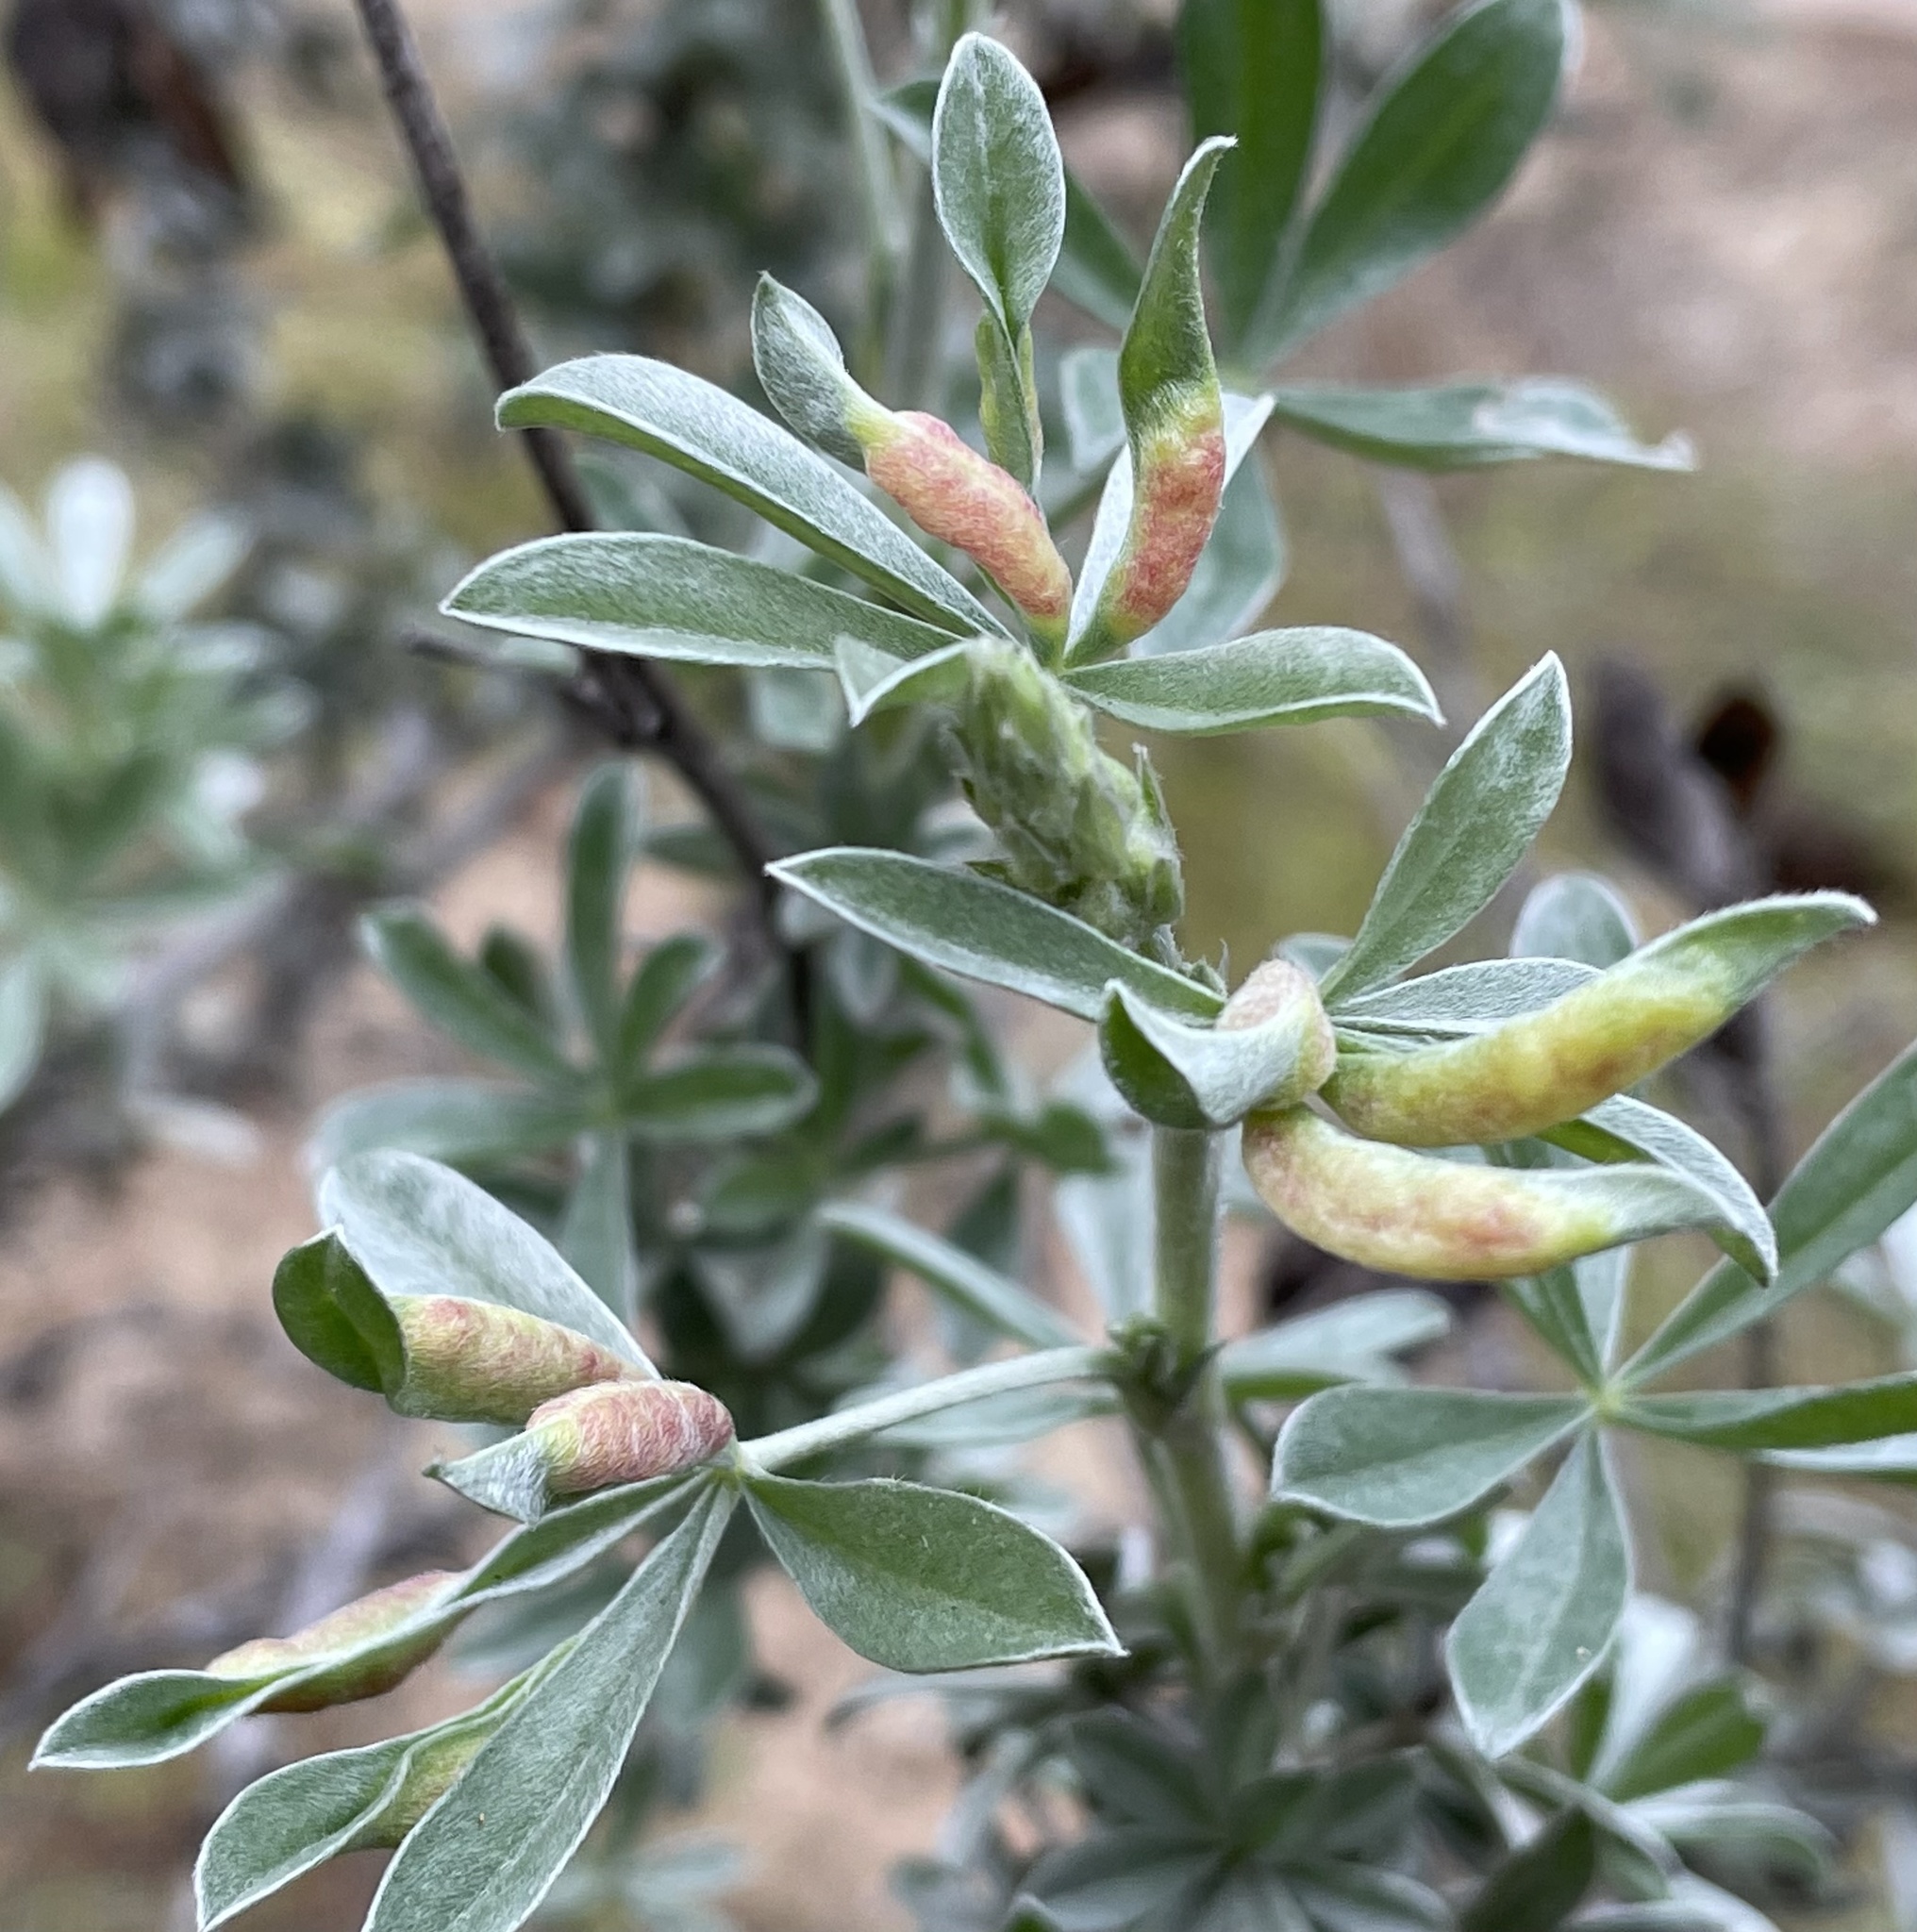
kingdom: Animalia
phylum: Arthropoda
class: Insecta
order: Diptera
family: Cecidomyiidae
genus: Dasineura
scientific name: Dasineura lupinorum
